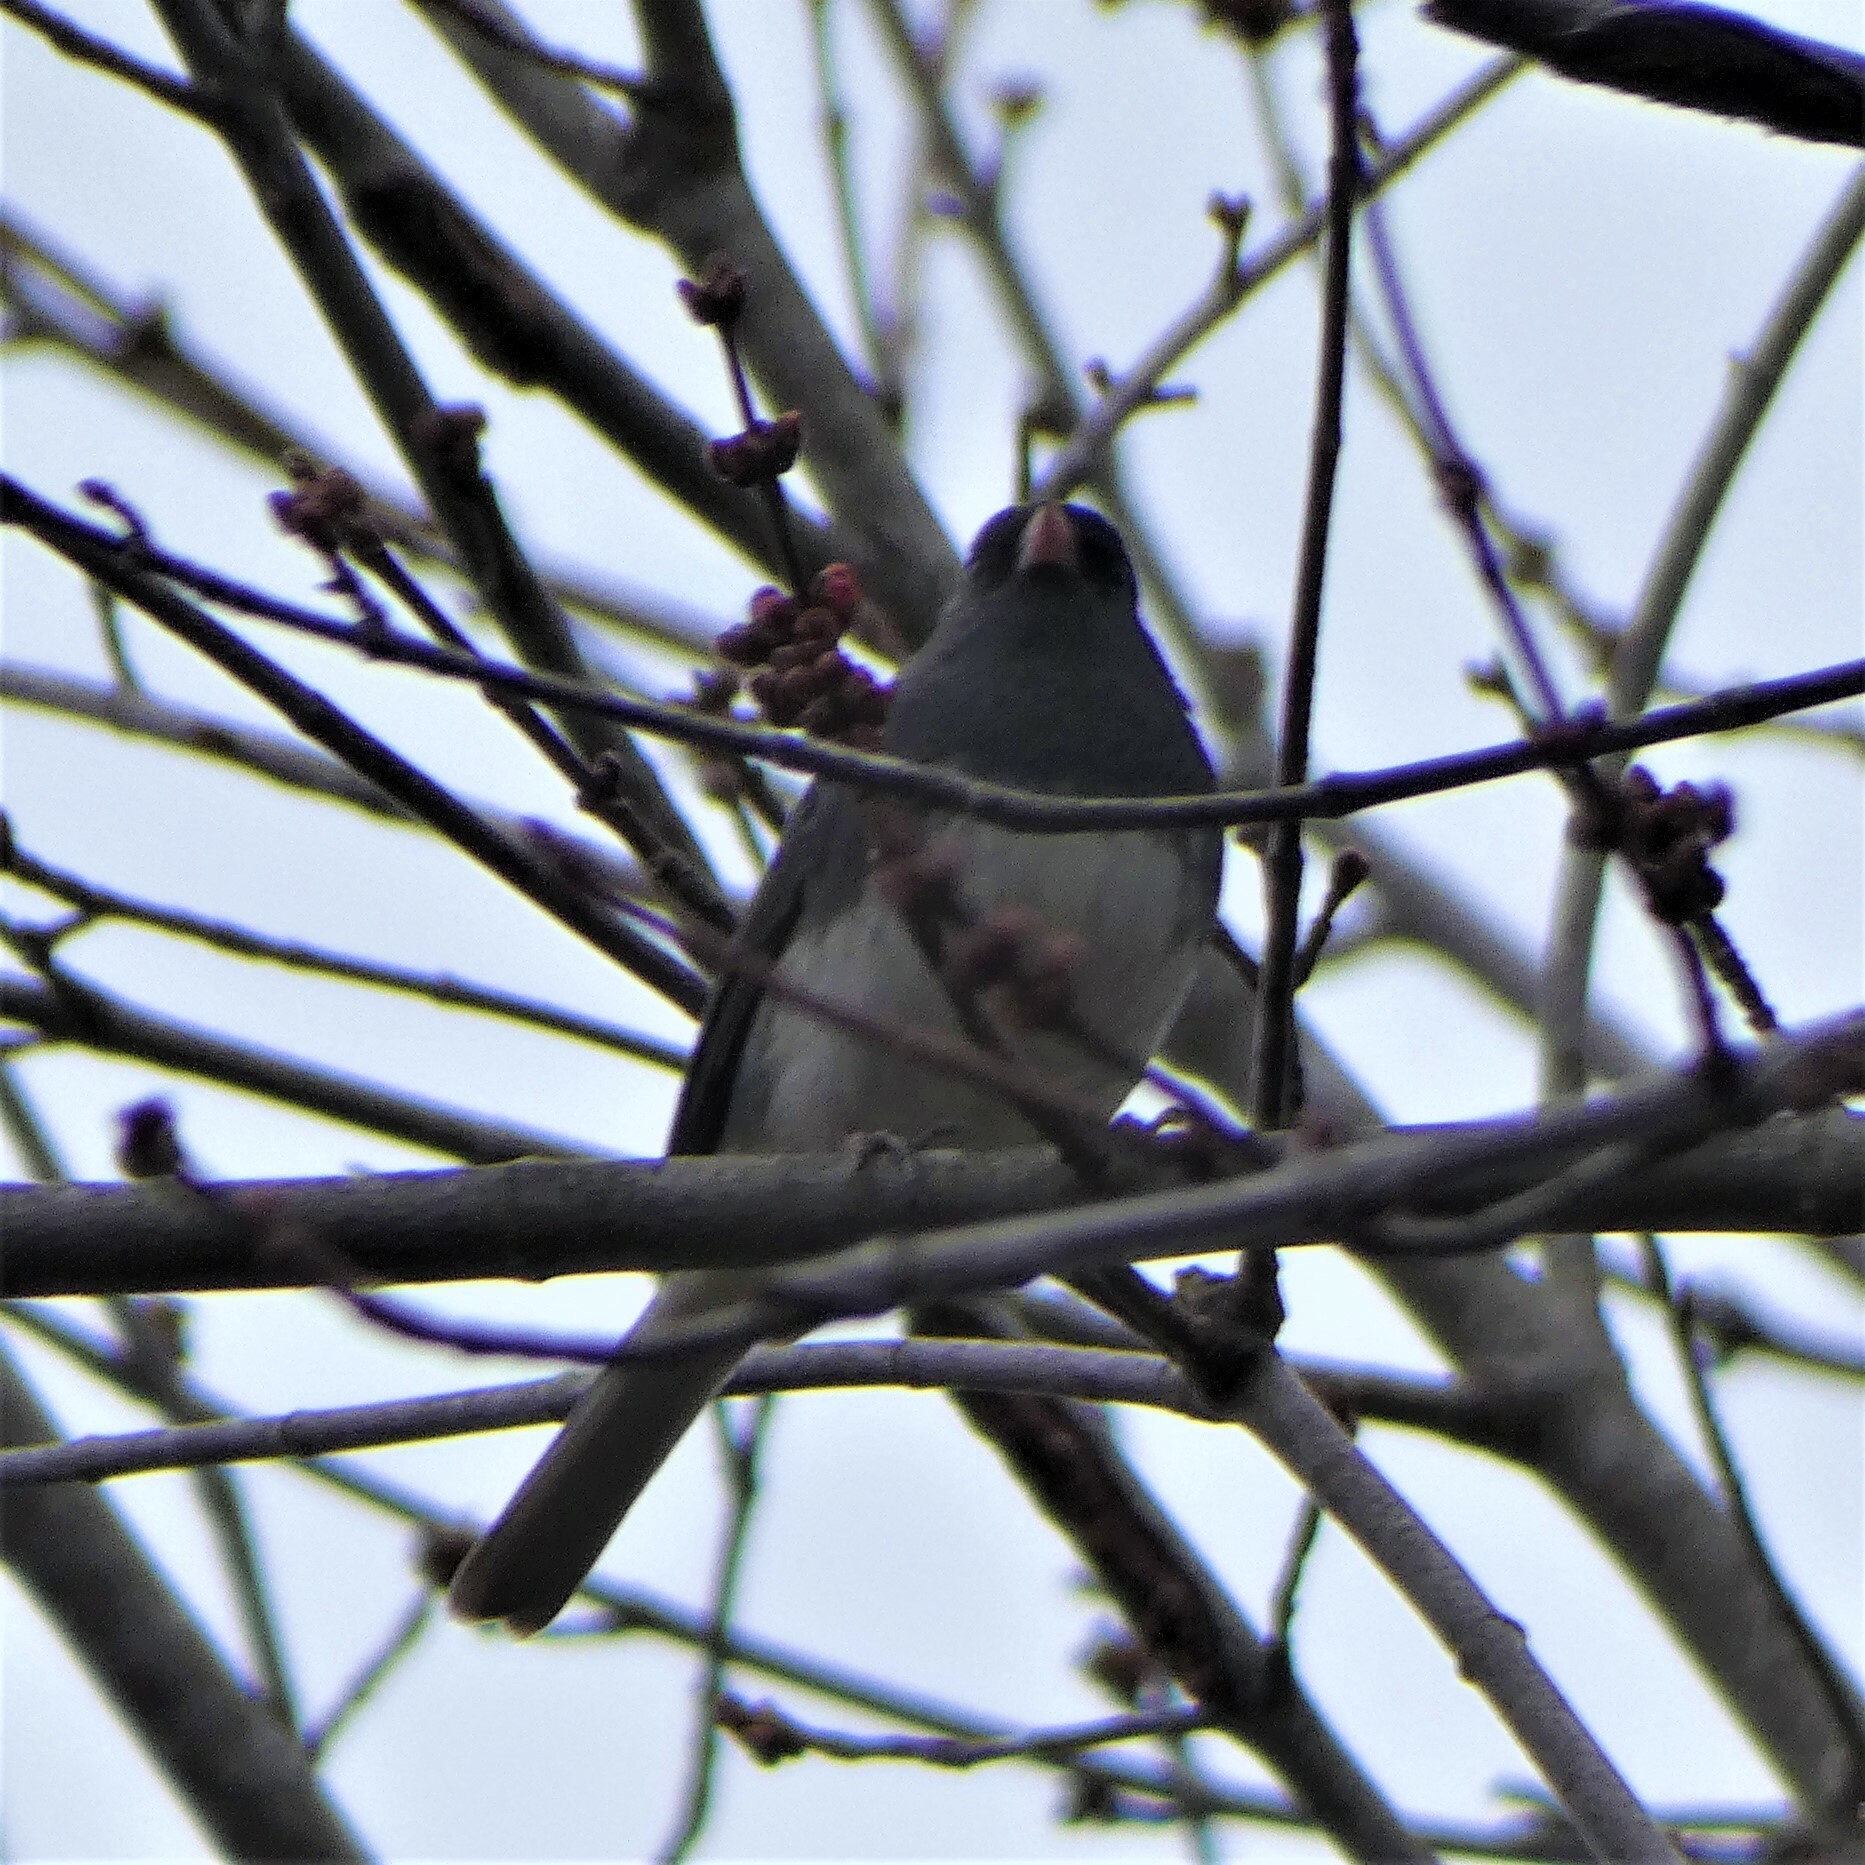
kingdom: Animalia
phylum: Chordata
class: Aves
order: Passeriformes
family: Passerellidae
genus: Junco
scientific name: Junco hyemalis
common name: Dark-eyed junco
